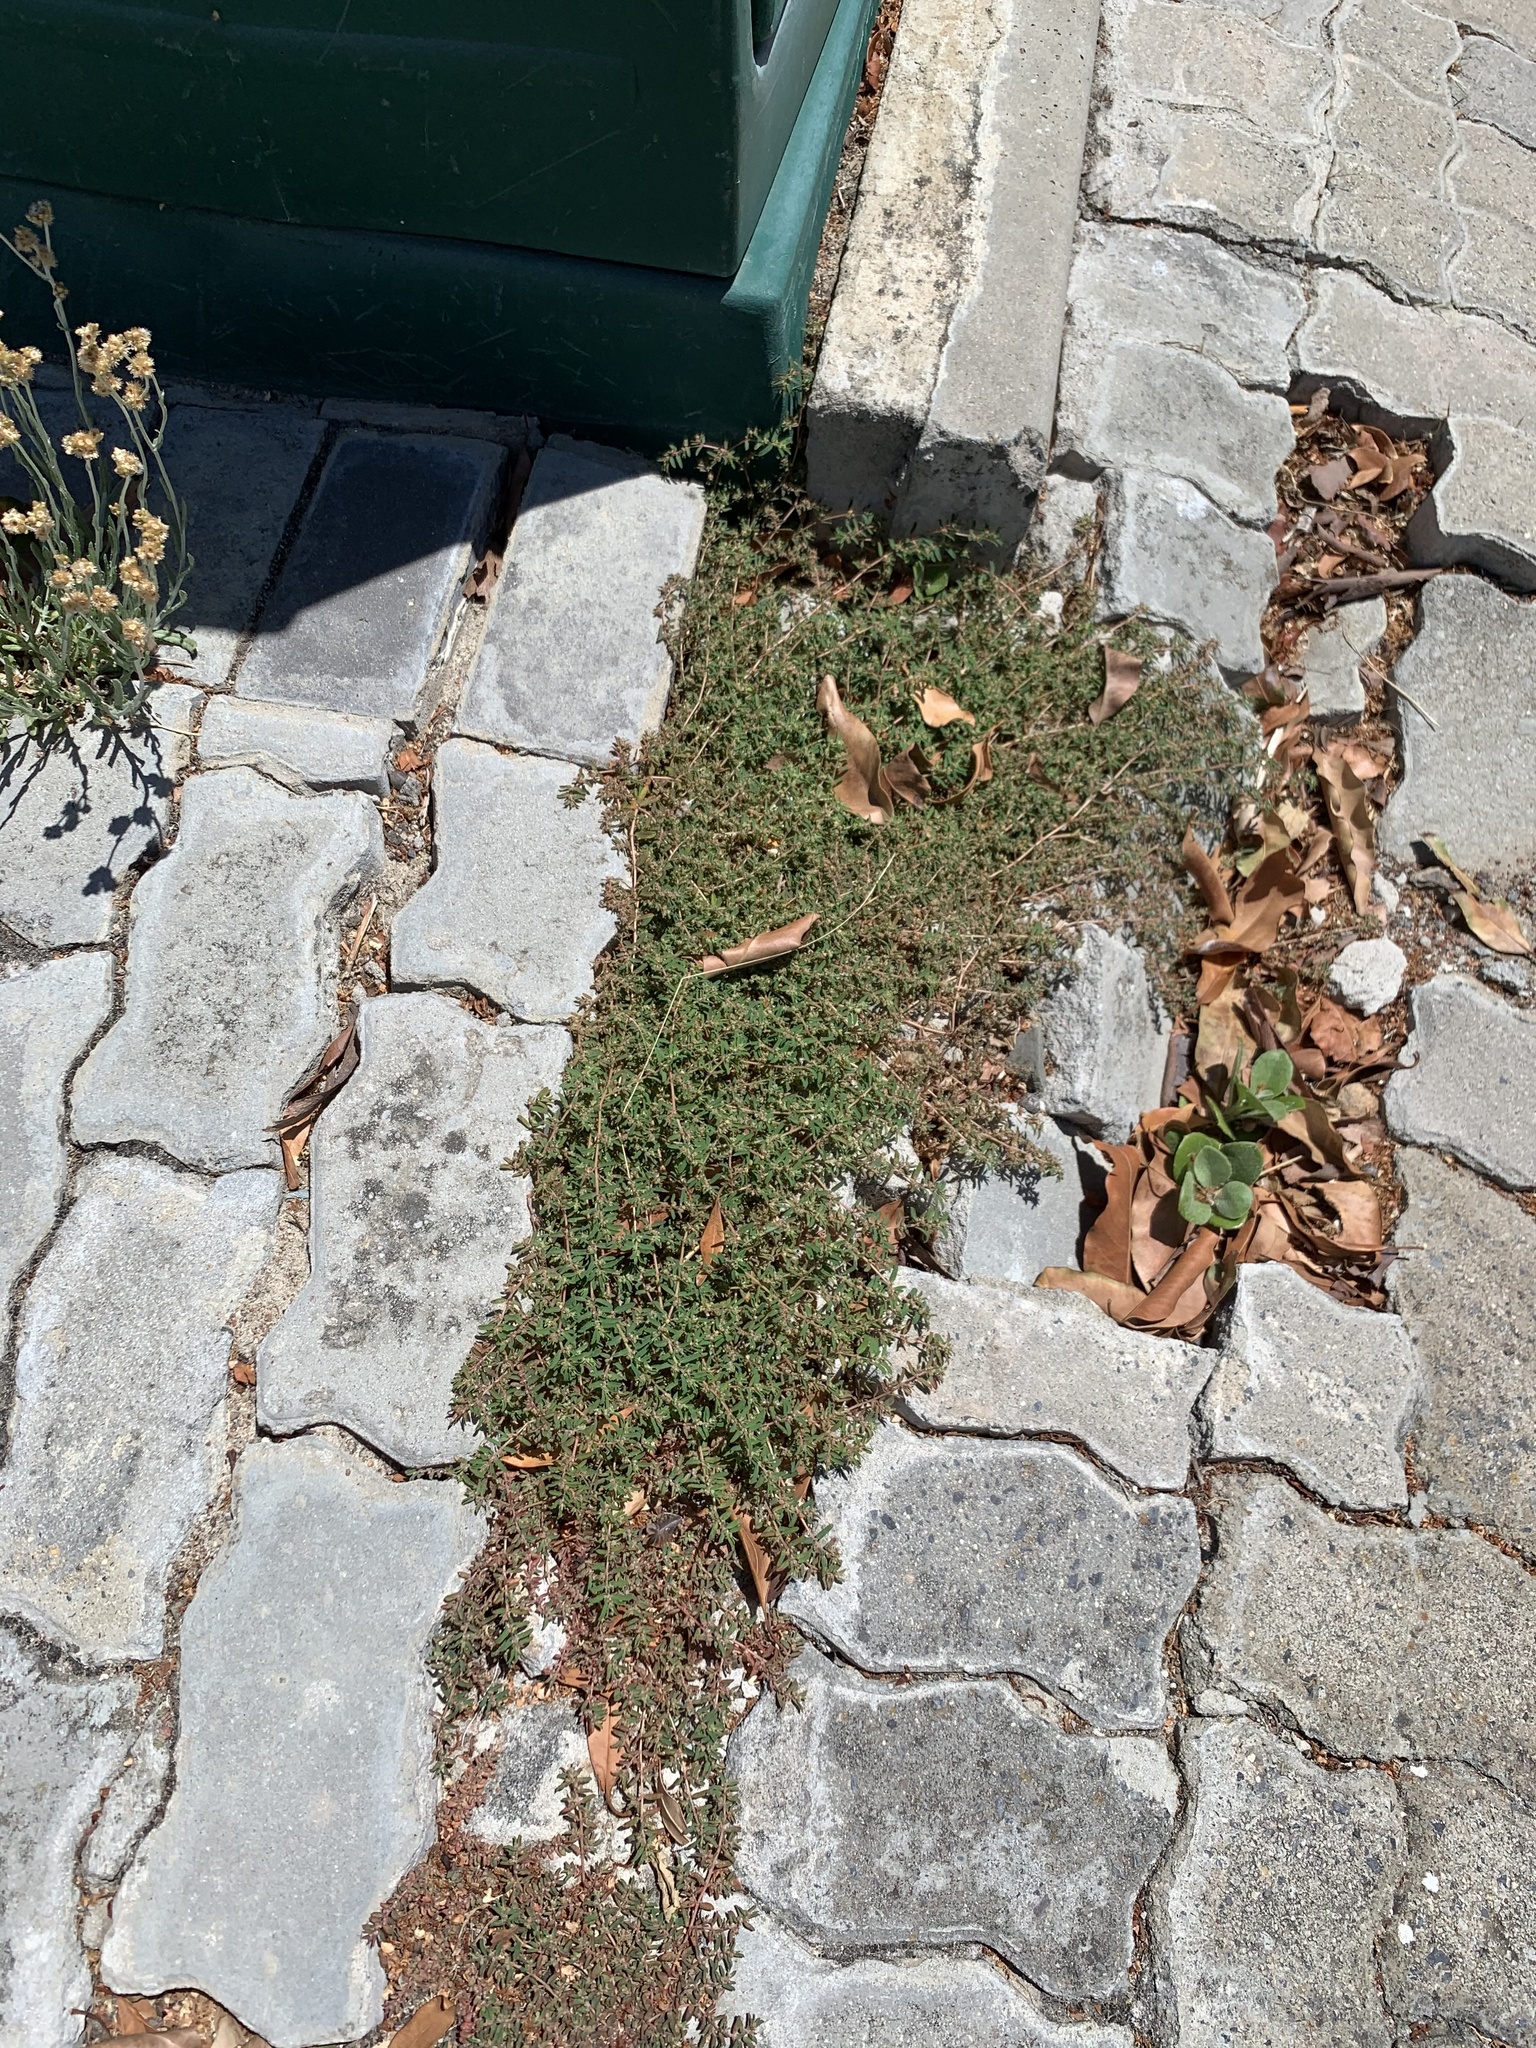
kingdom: Plantae
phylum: Tracheophyta
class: Magnoliopsida
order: Malpighiales
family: Euphorbiaceae
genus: Euphorbia
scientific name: Euphorbia maculata
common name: Spotted spurge
